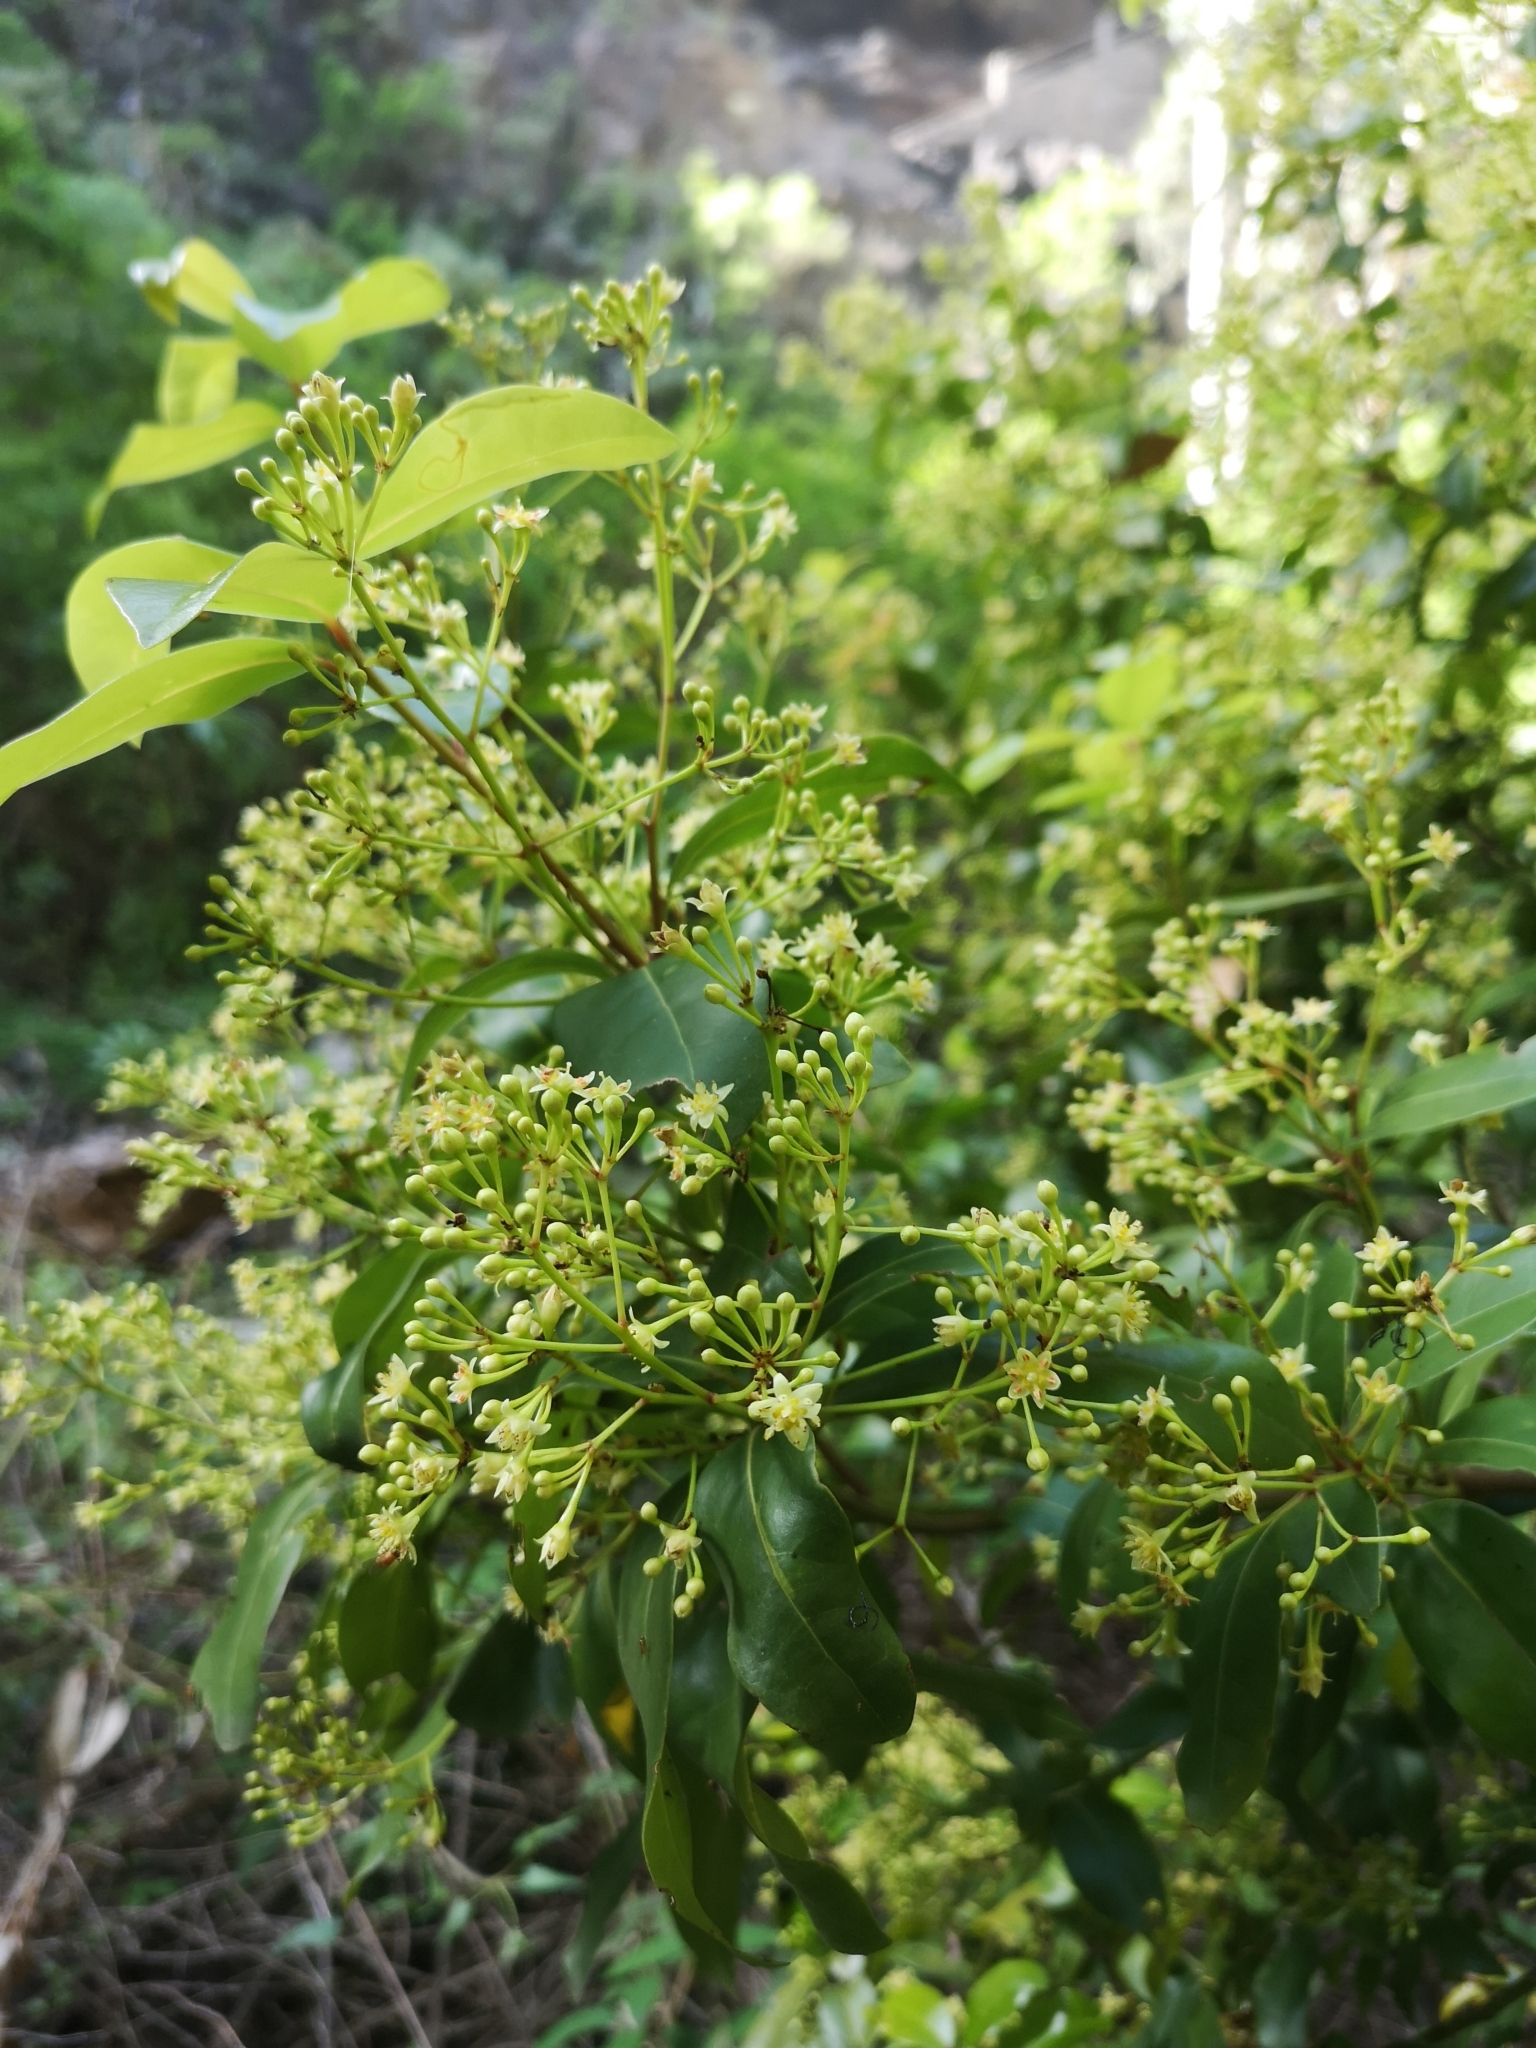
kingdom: Plantae
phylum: Tracheophyta
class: Magnoliopsida
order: Laurales
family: Lauraceae
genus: Apollonias
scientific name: Apollonias barbujana
